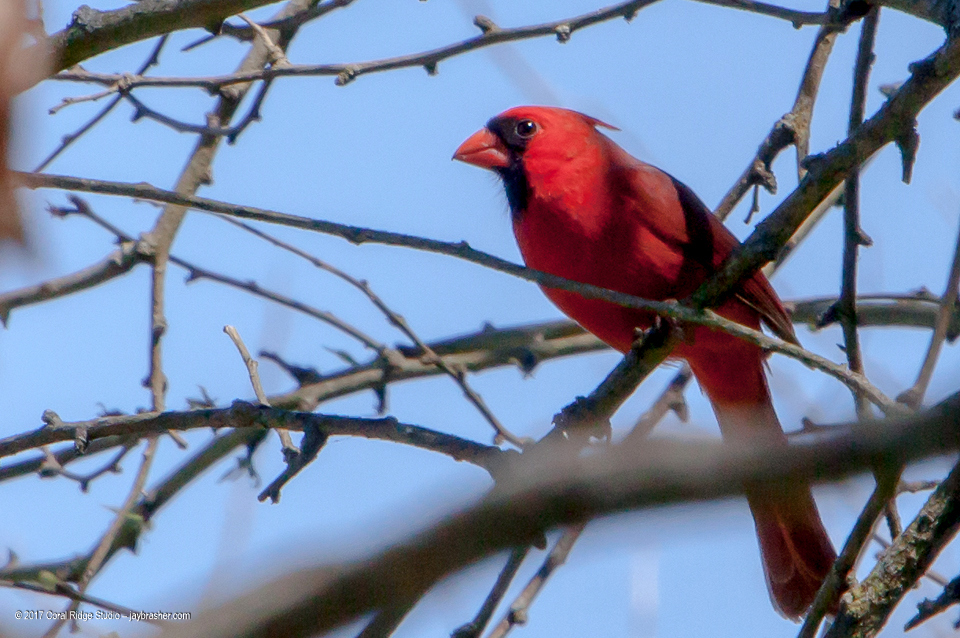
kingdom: Animalia
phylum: Chordata
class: Aves
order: Passeriformes
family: Cardinalidae
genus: Cardinalis
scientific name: Cardinalis cardinalis
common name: Northern cardinal
